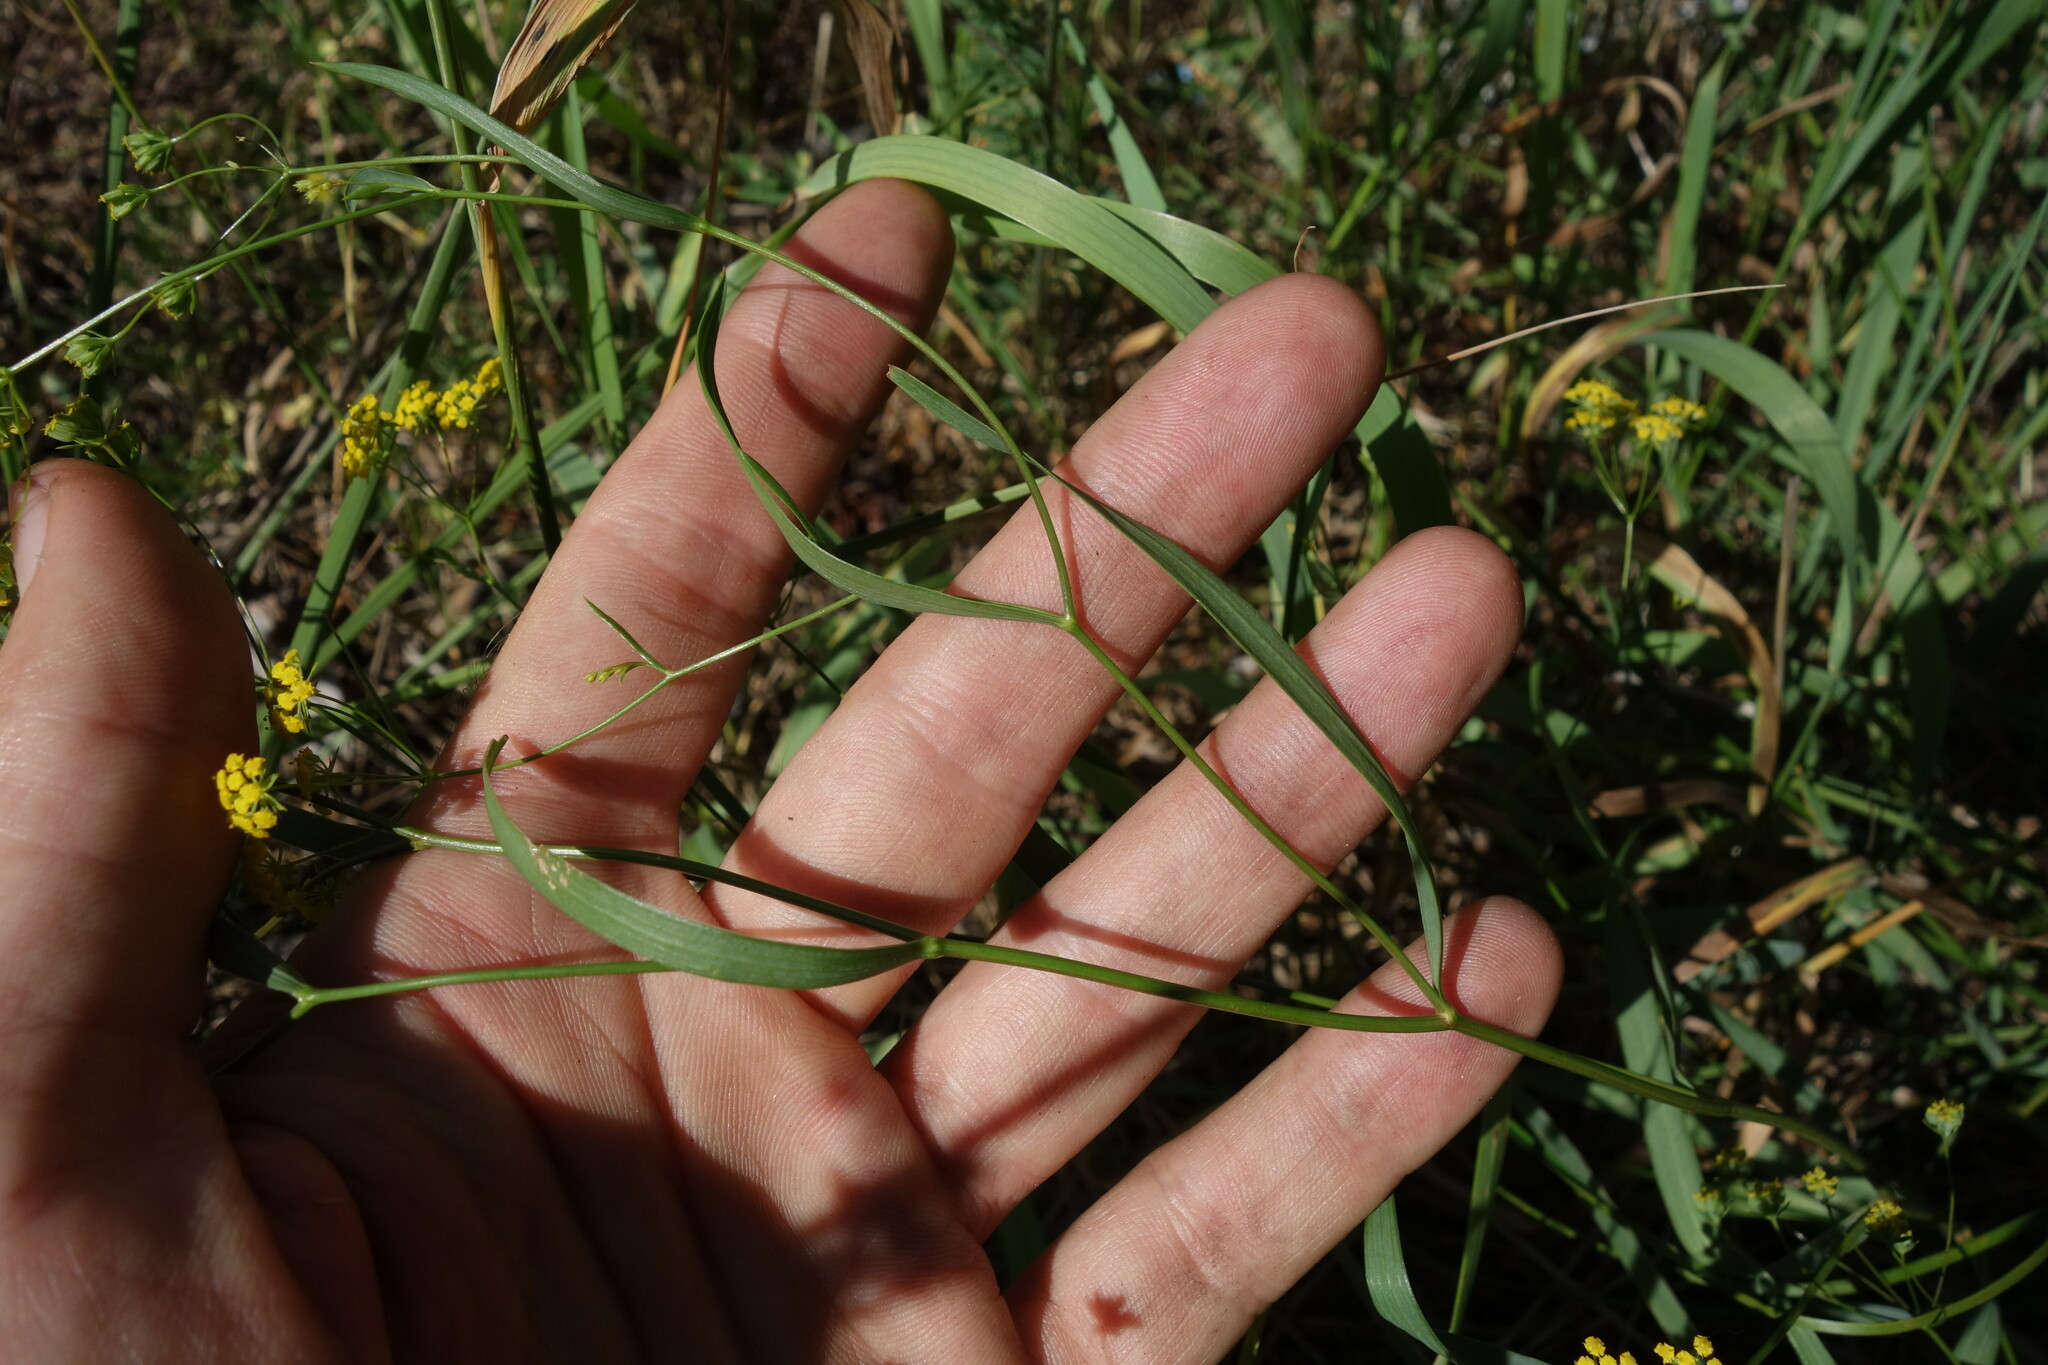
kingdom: Plantae
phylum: Tracheophyta
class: Magnoliopsida
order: Apiales
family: Apiaceae
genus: Bupleurum
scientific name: Bupleurum scorzonerifolium
